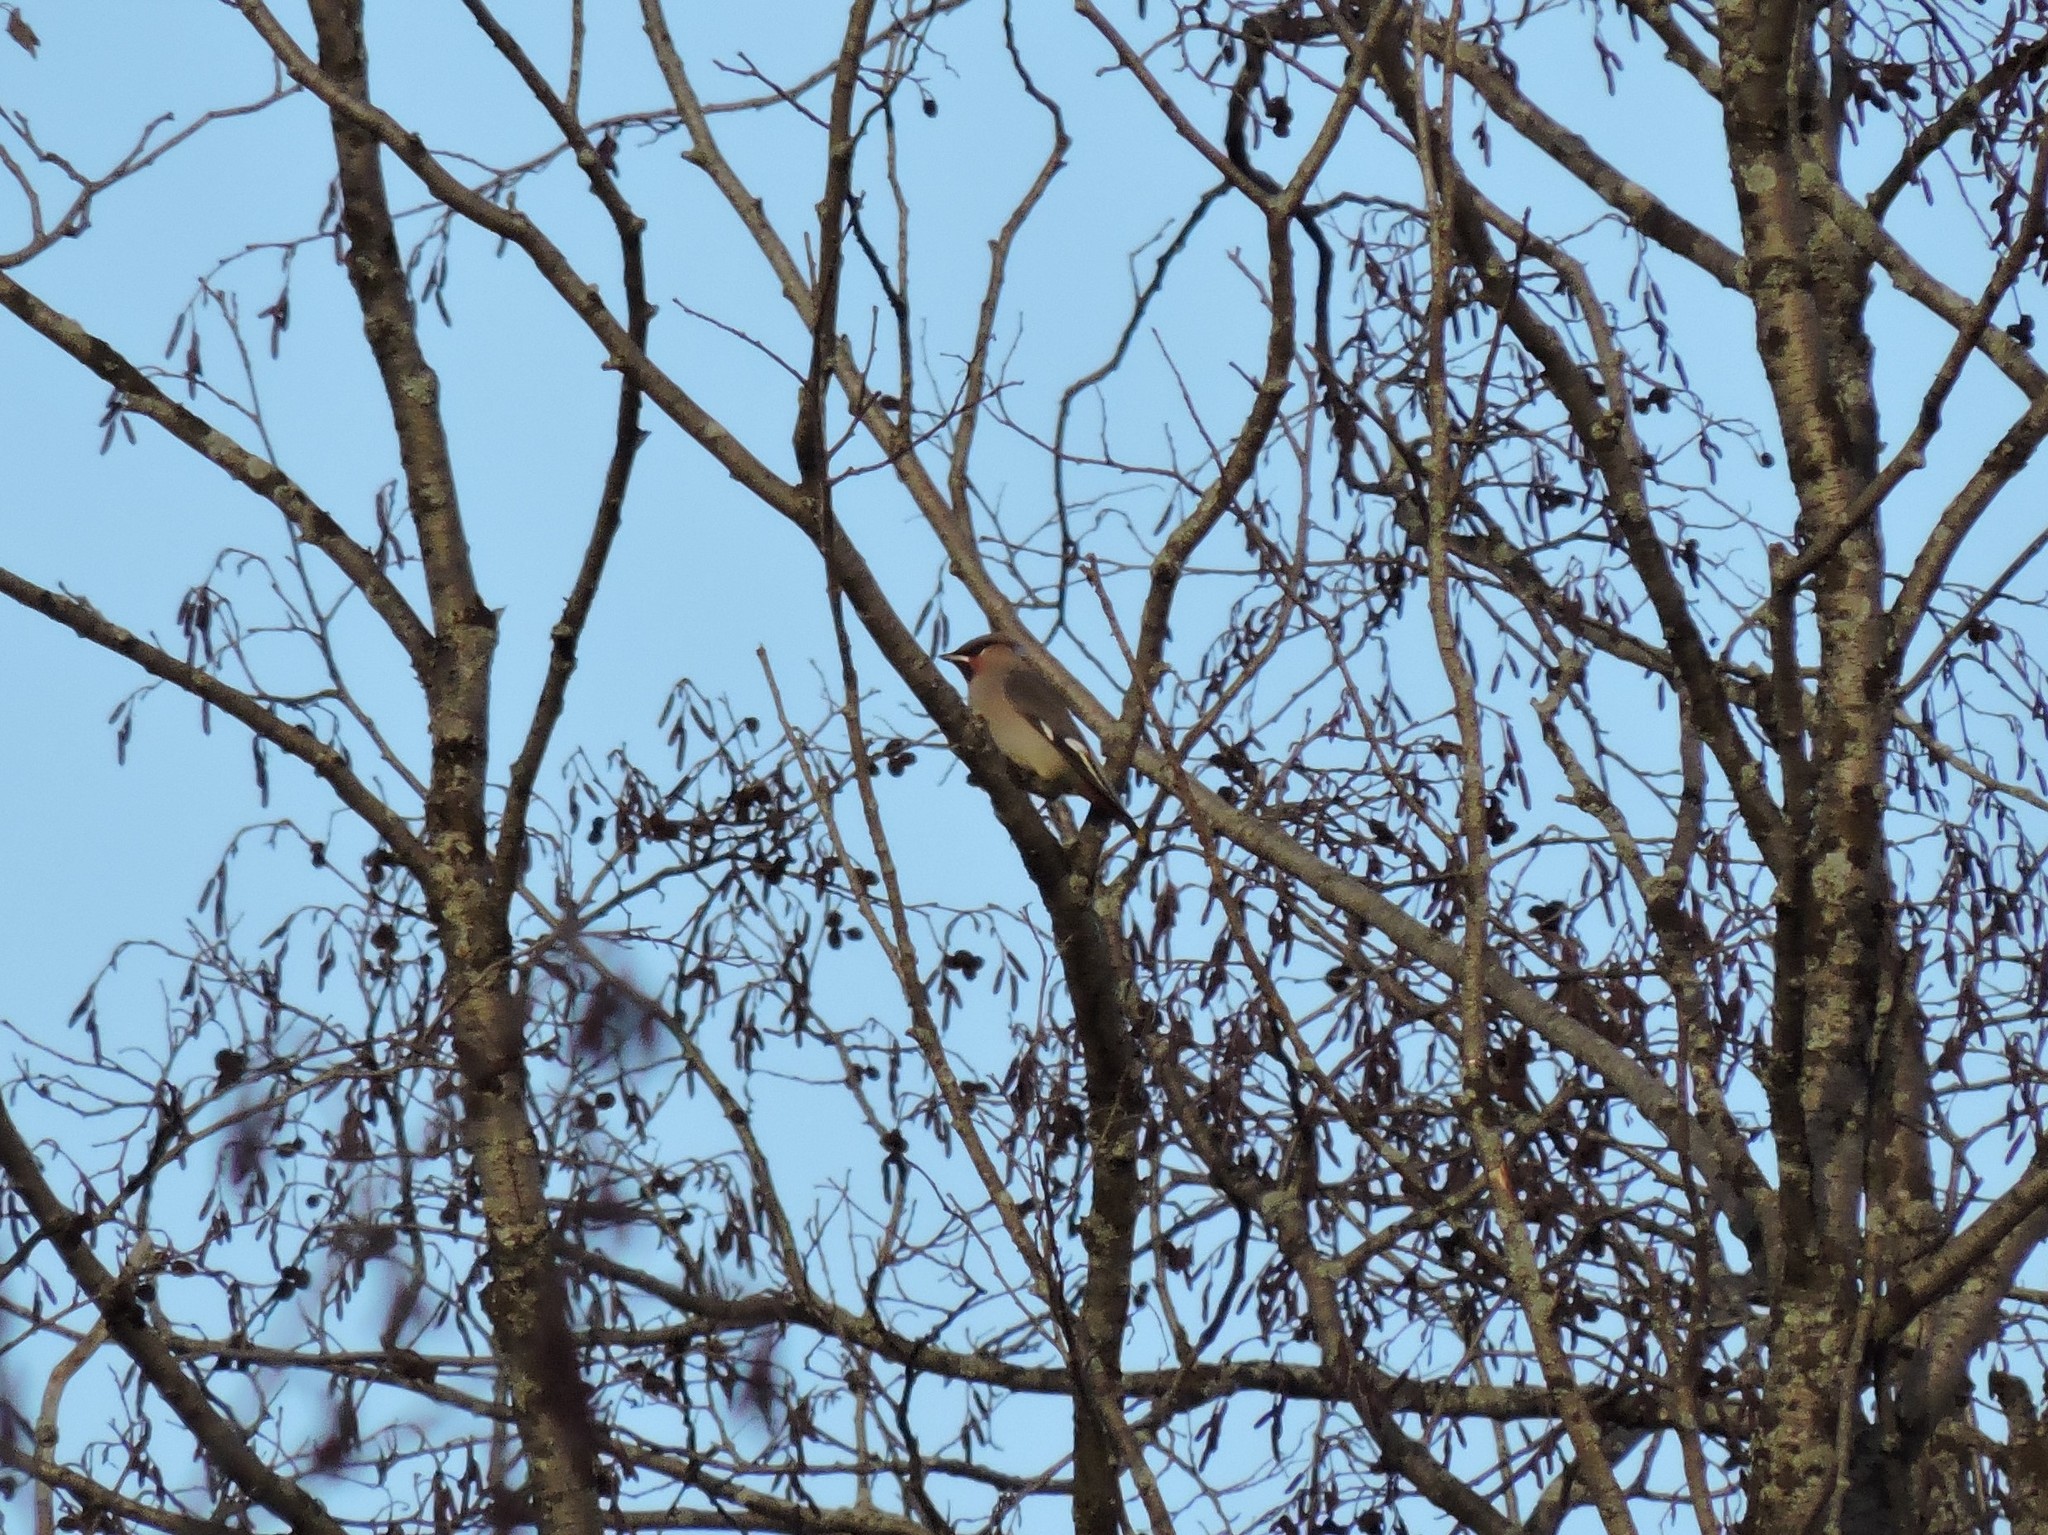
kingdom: Animalia
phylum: Chordata
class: Aves
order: Passeriformes
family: Bombycillidae
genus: Bombycilla
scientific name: Bombycilla garrulus
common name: Bohemian waxwing
